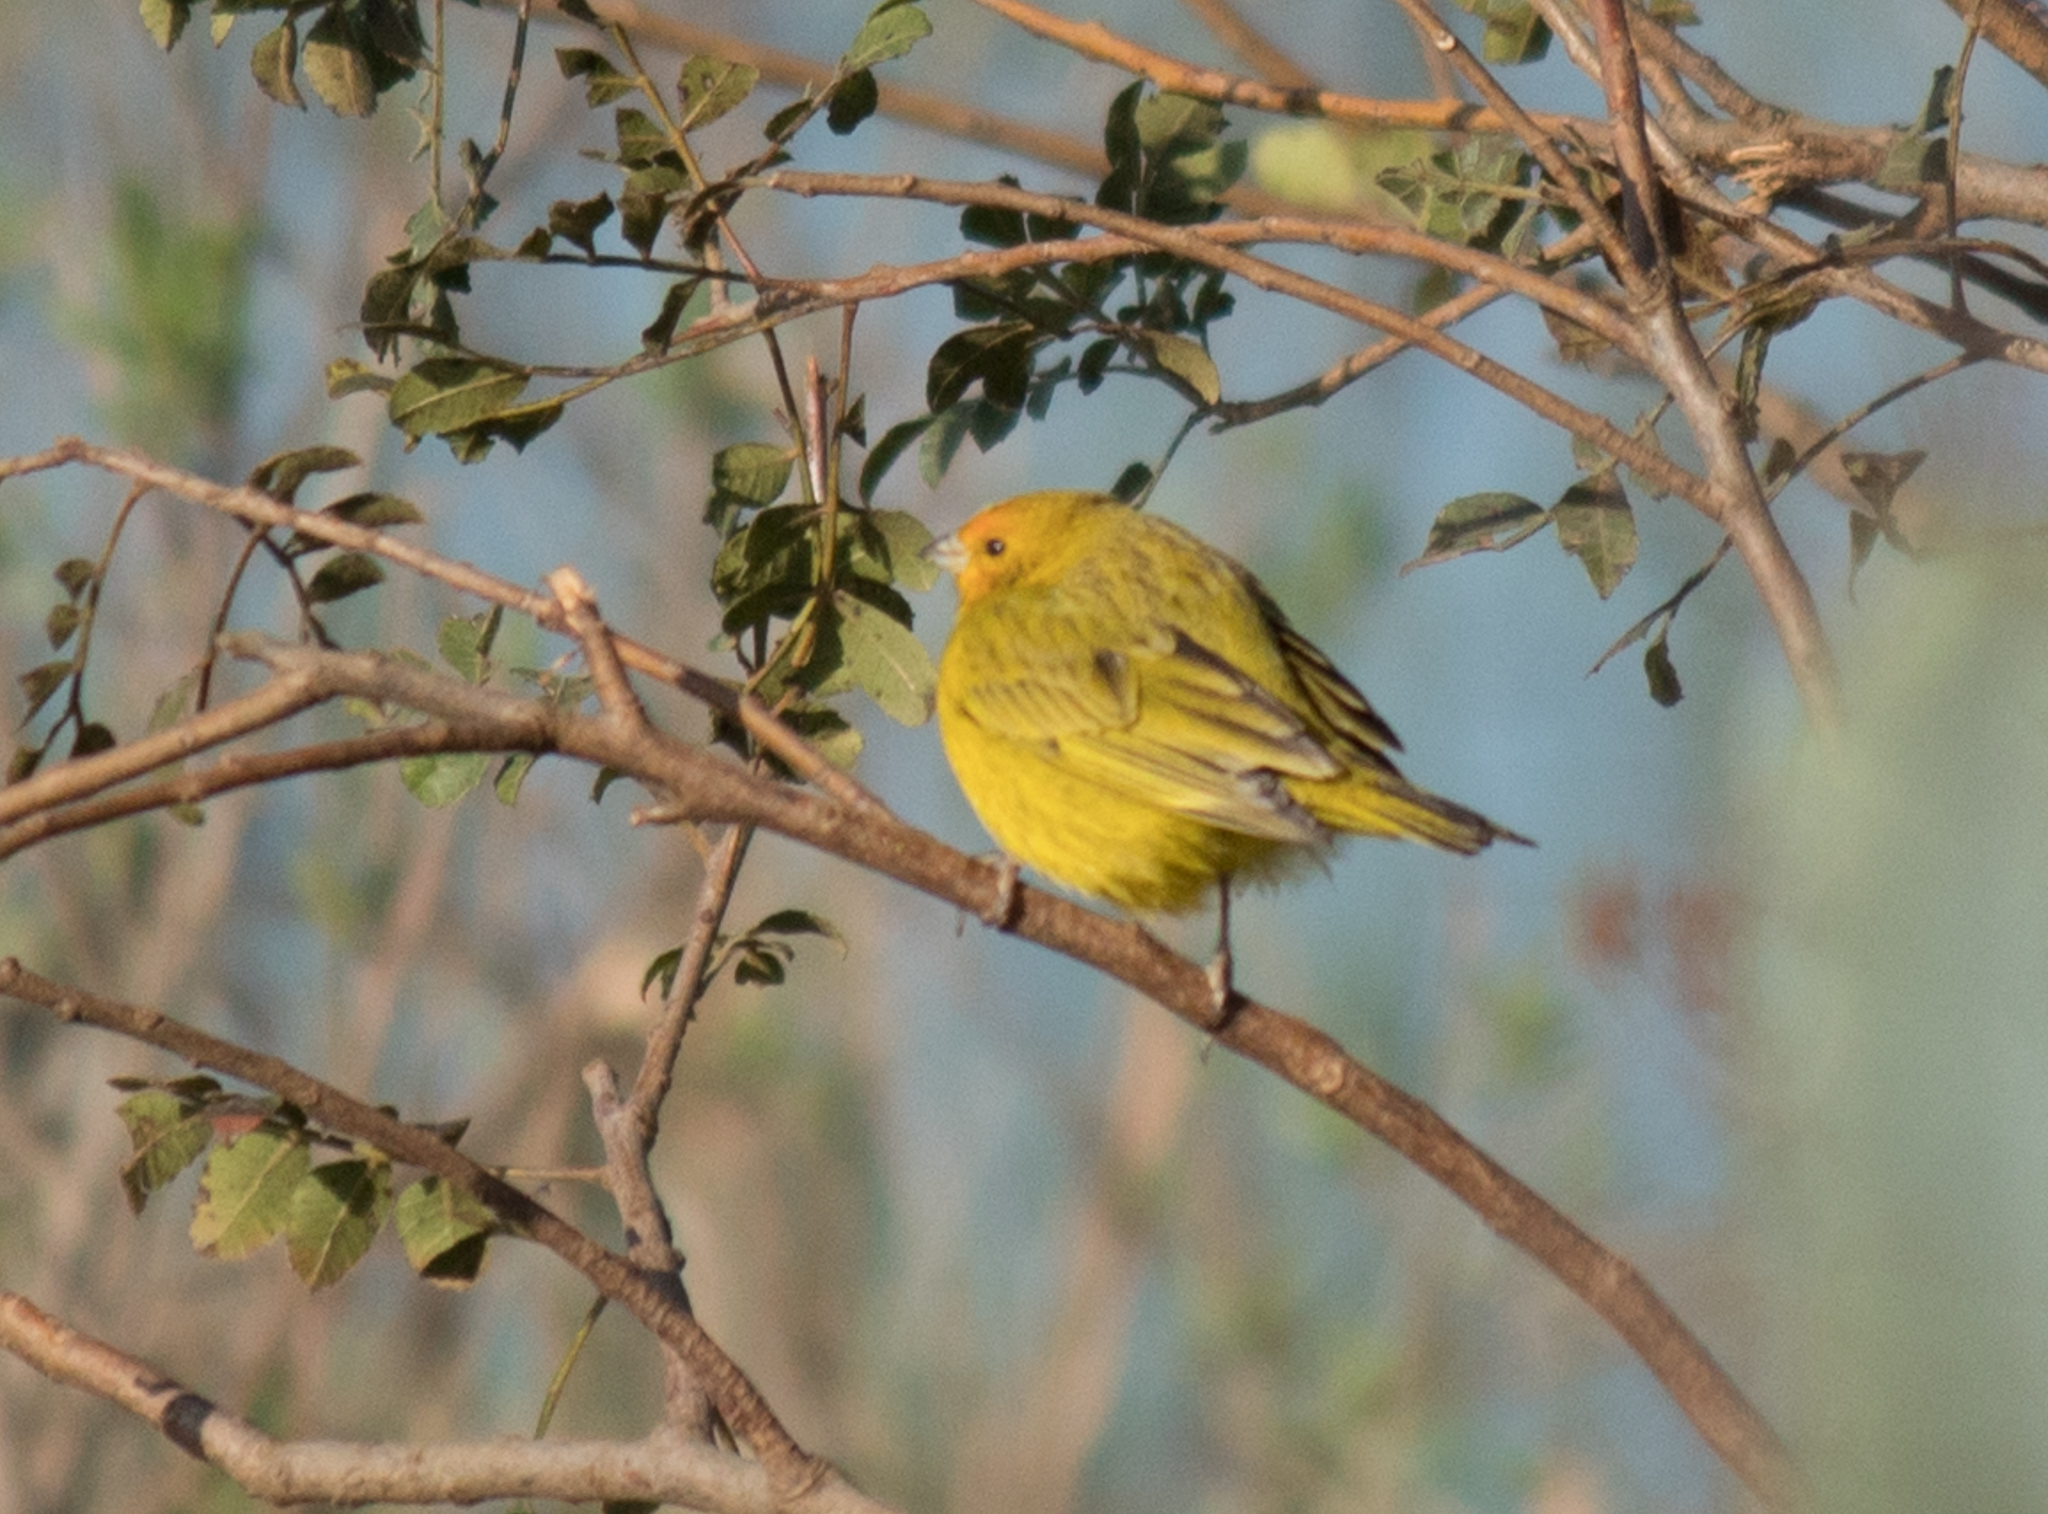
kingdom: Animalia
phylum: Chordata
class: Aves
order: Passeriformes
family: Thraupidae
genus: Sicalis
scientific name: Sicalis flaveola
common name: Saffron finch
